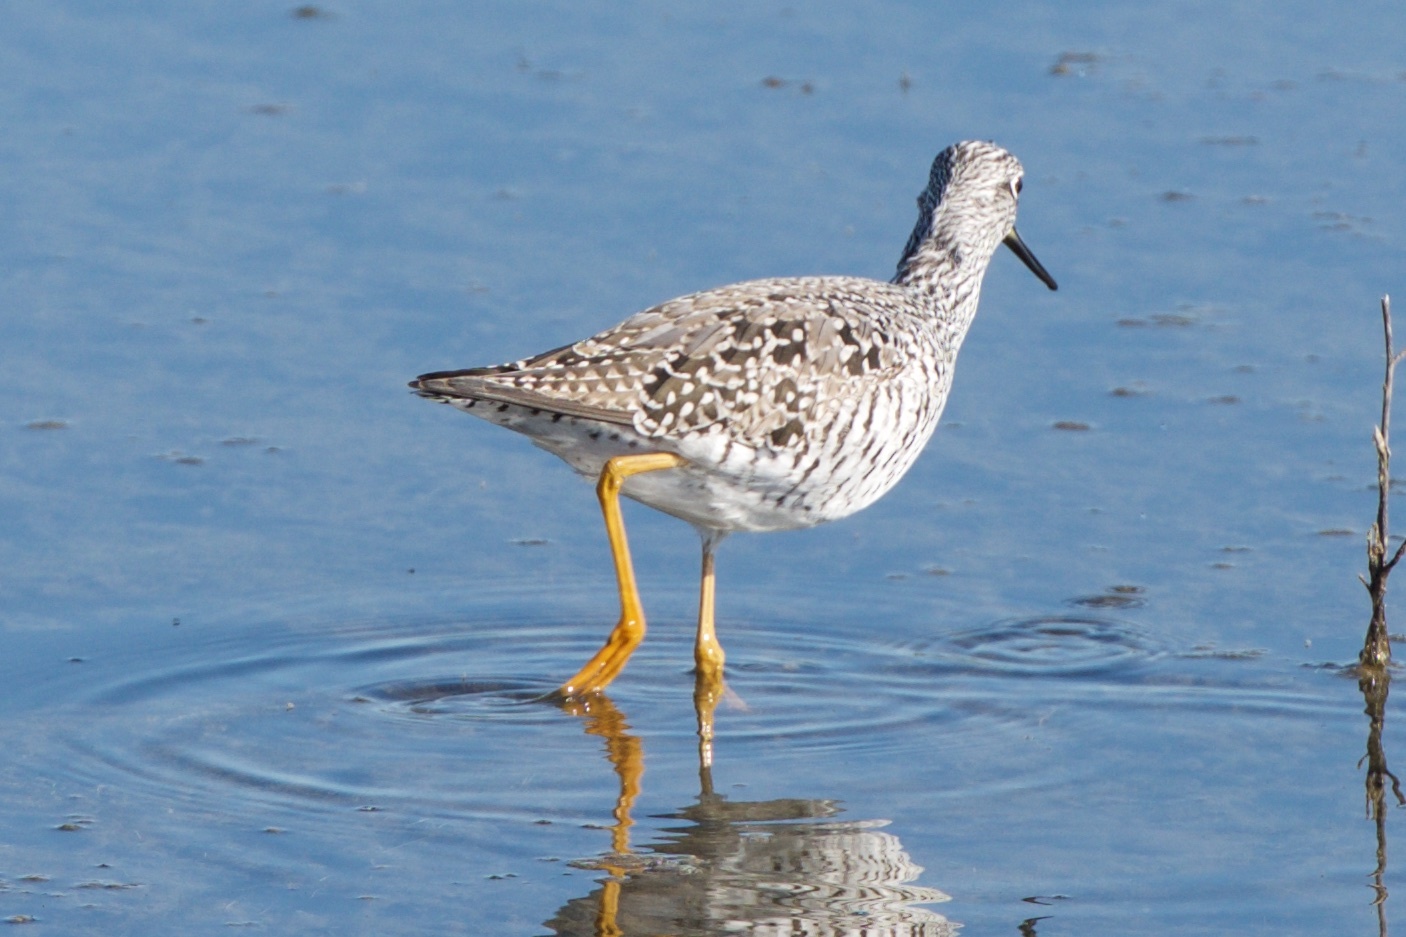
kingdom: Animalia
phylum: Chordata
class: Aves
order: Charadriiformes
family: Scolopacidae
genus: Tringa
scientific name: Tringa melanoleuca
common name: Greater yellowlegs
